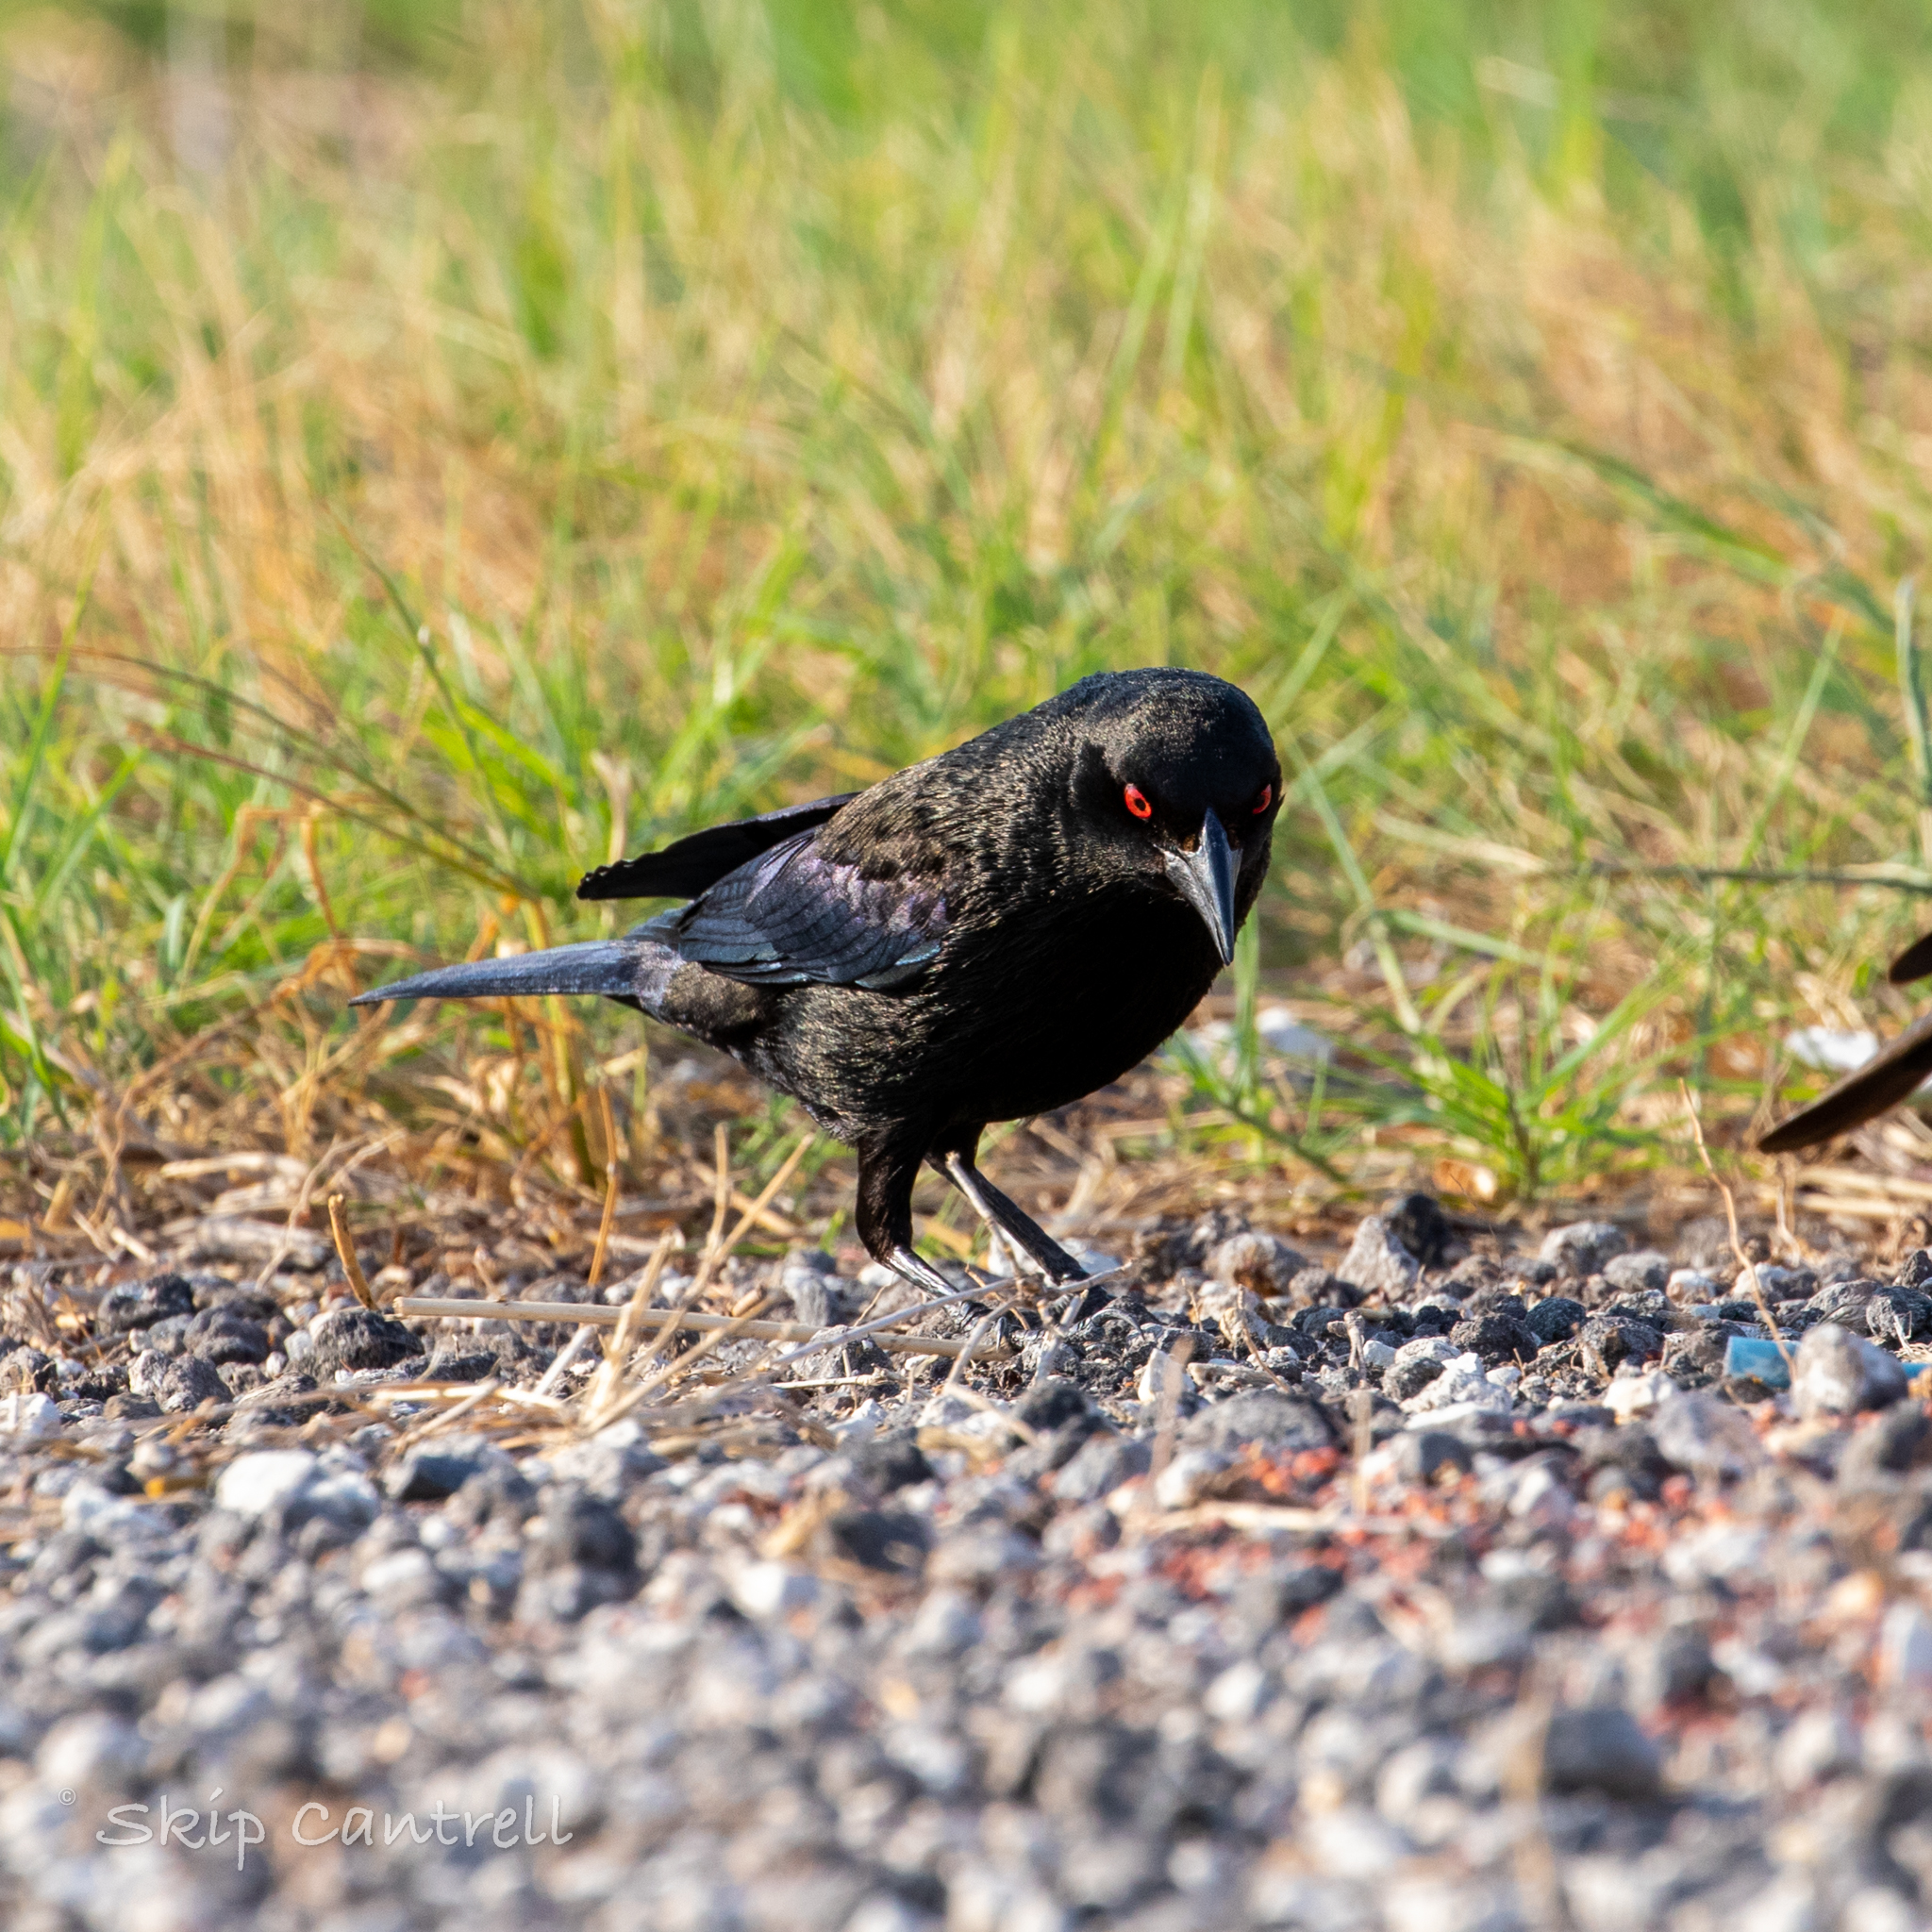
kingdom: Animalia
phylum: Chordata
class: Aves
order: Passeriformes
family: Icteridae
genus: Molothrus
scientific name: Molothrus aeneus
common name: Bronzed cowbird
